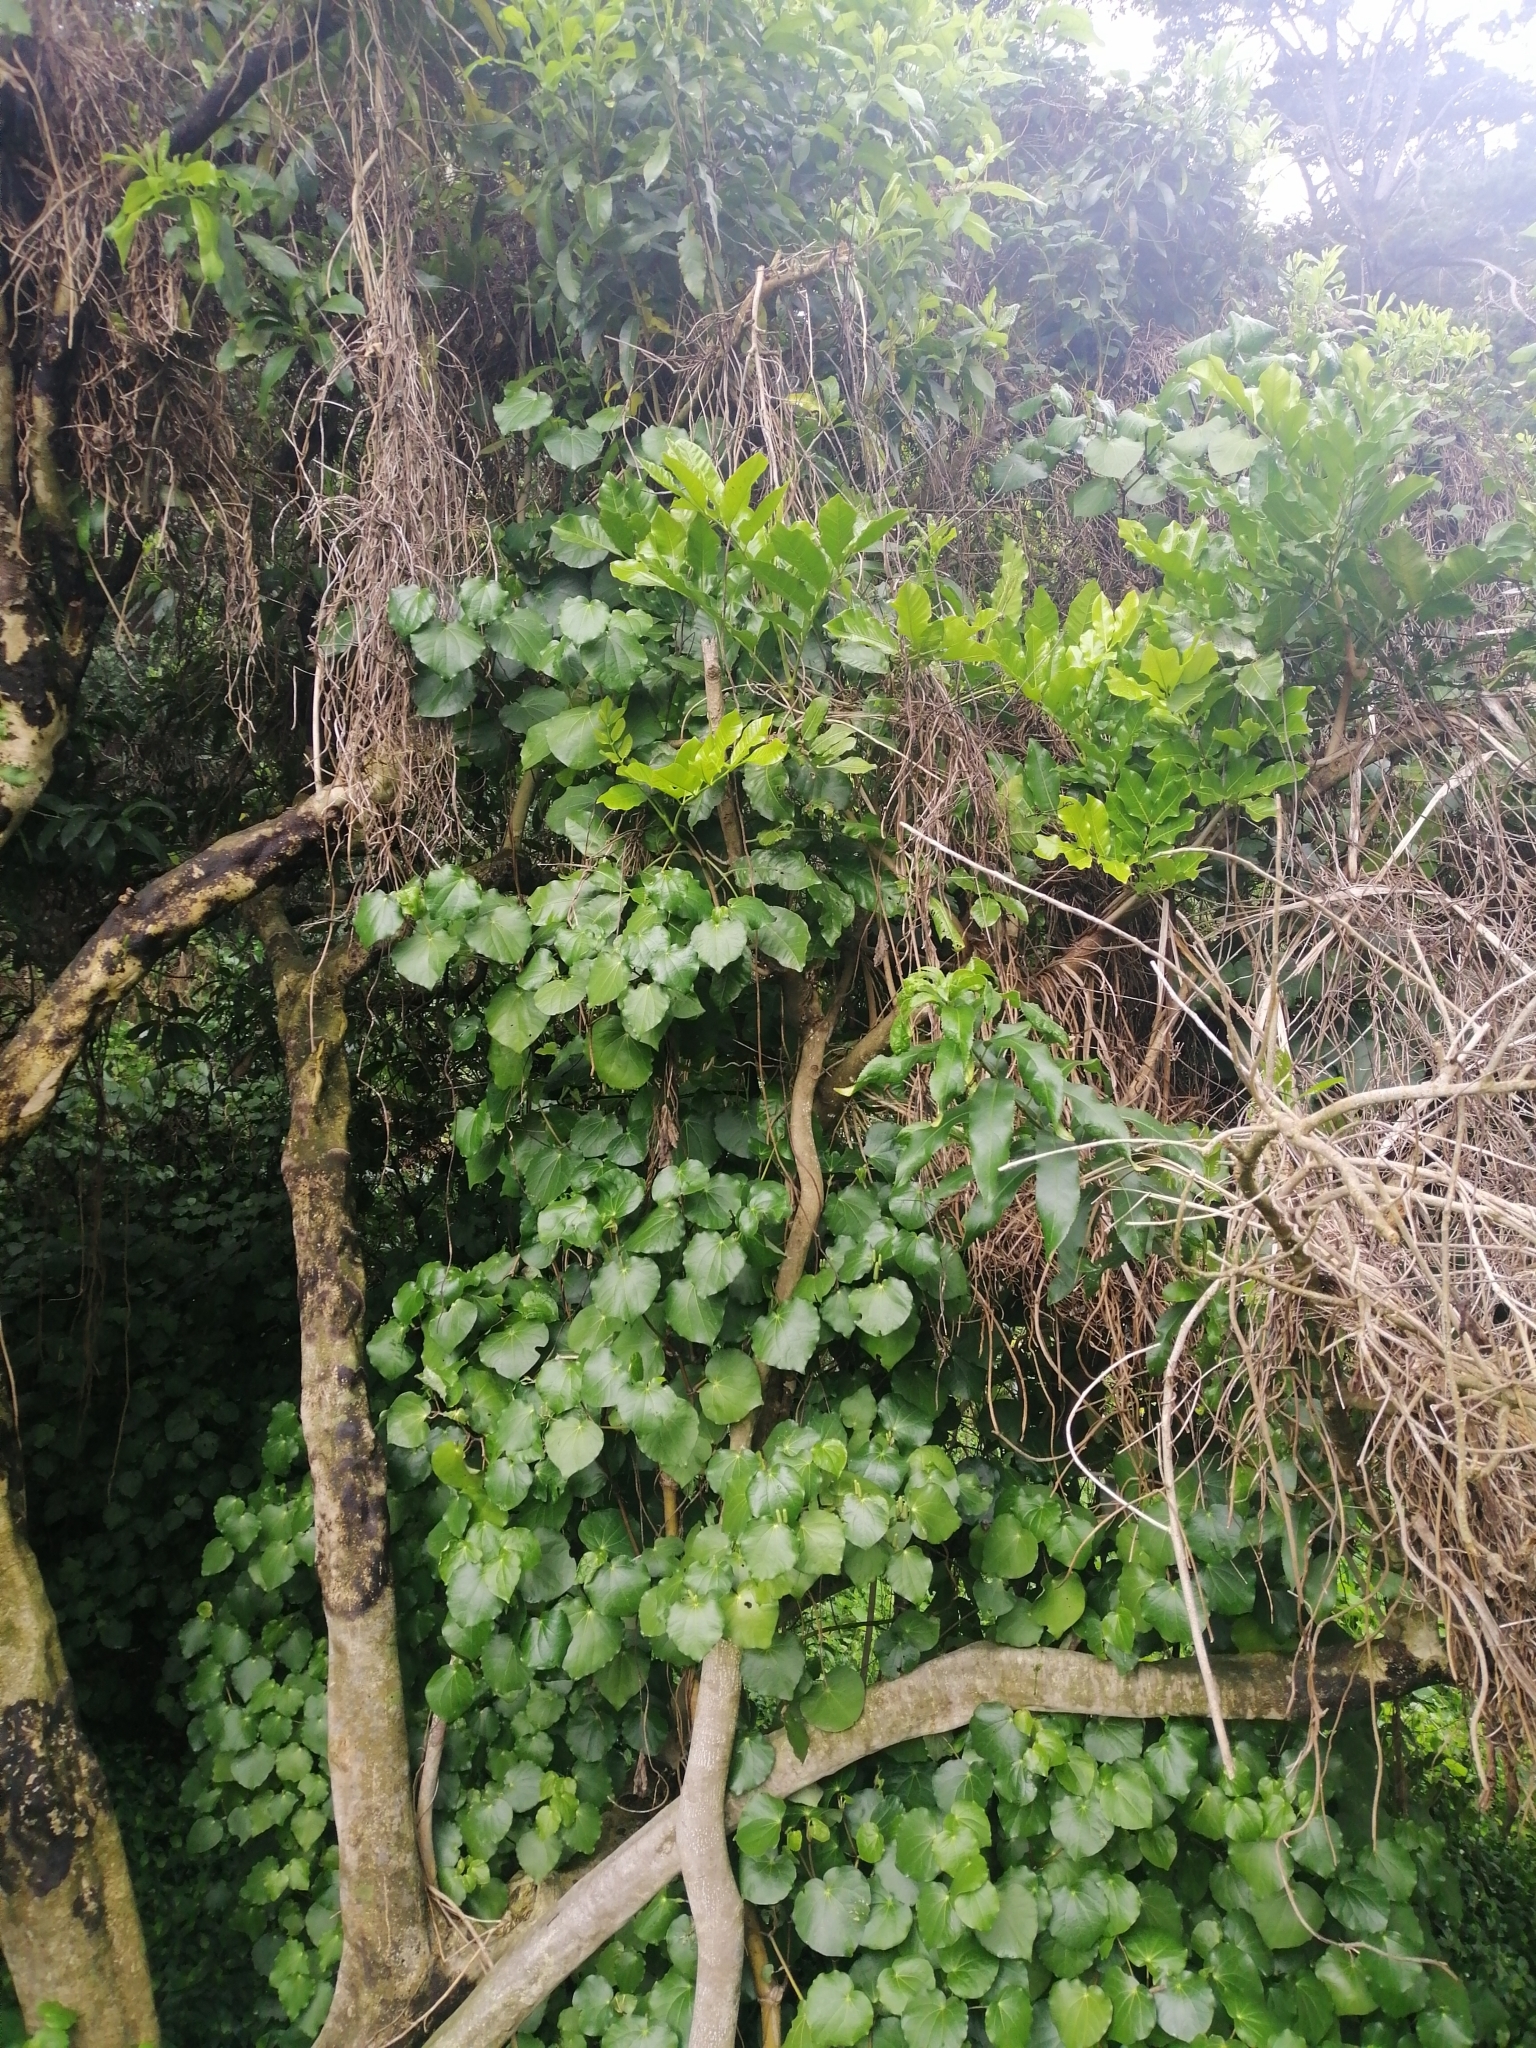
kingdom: Plantae
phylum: Tracheophyta
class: Magnoliopsida
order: Sapindales
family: Meliaceae
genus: Didymocheton
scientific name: Didymocheton spectabilis
